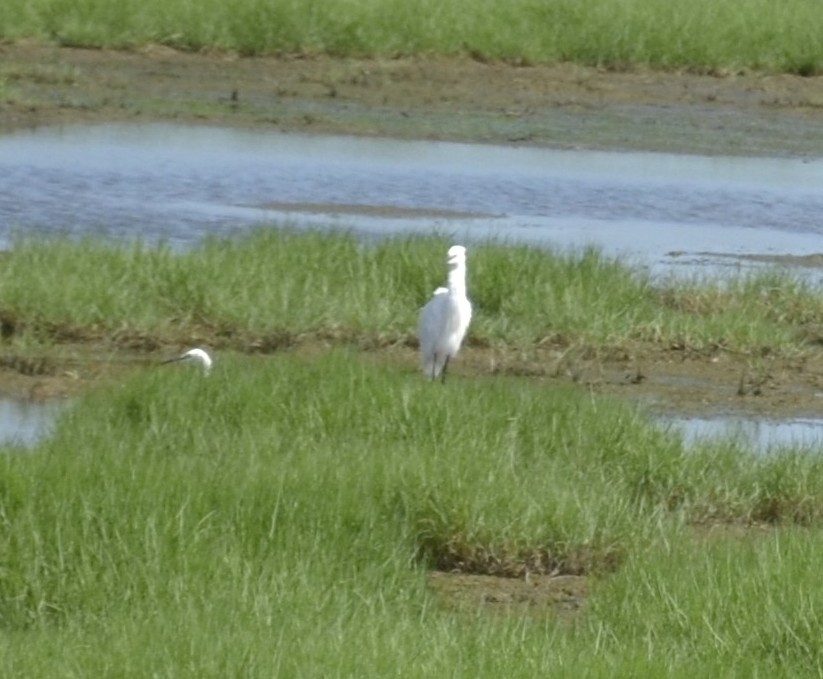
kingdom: Animalia
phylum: Chordata
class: Aves
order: Pelecaniformes
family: Ardeidae
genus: Egretta
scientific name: Egretta garzetta
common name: Little egret
